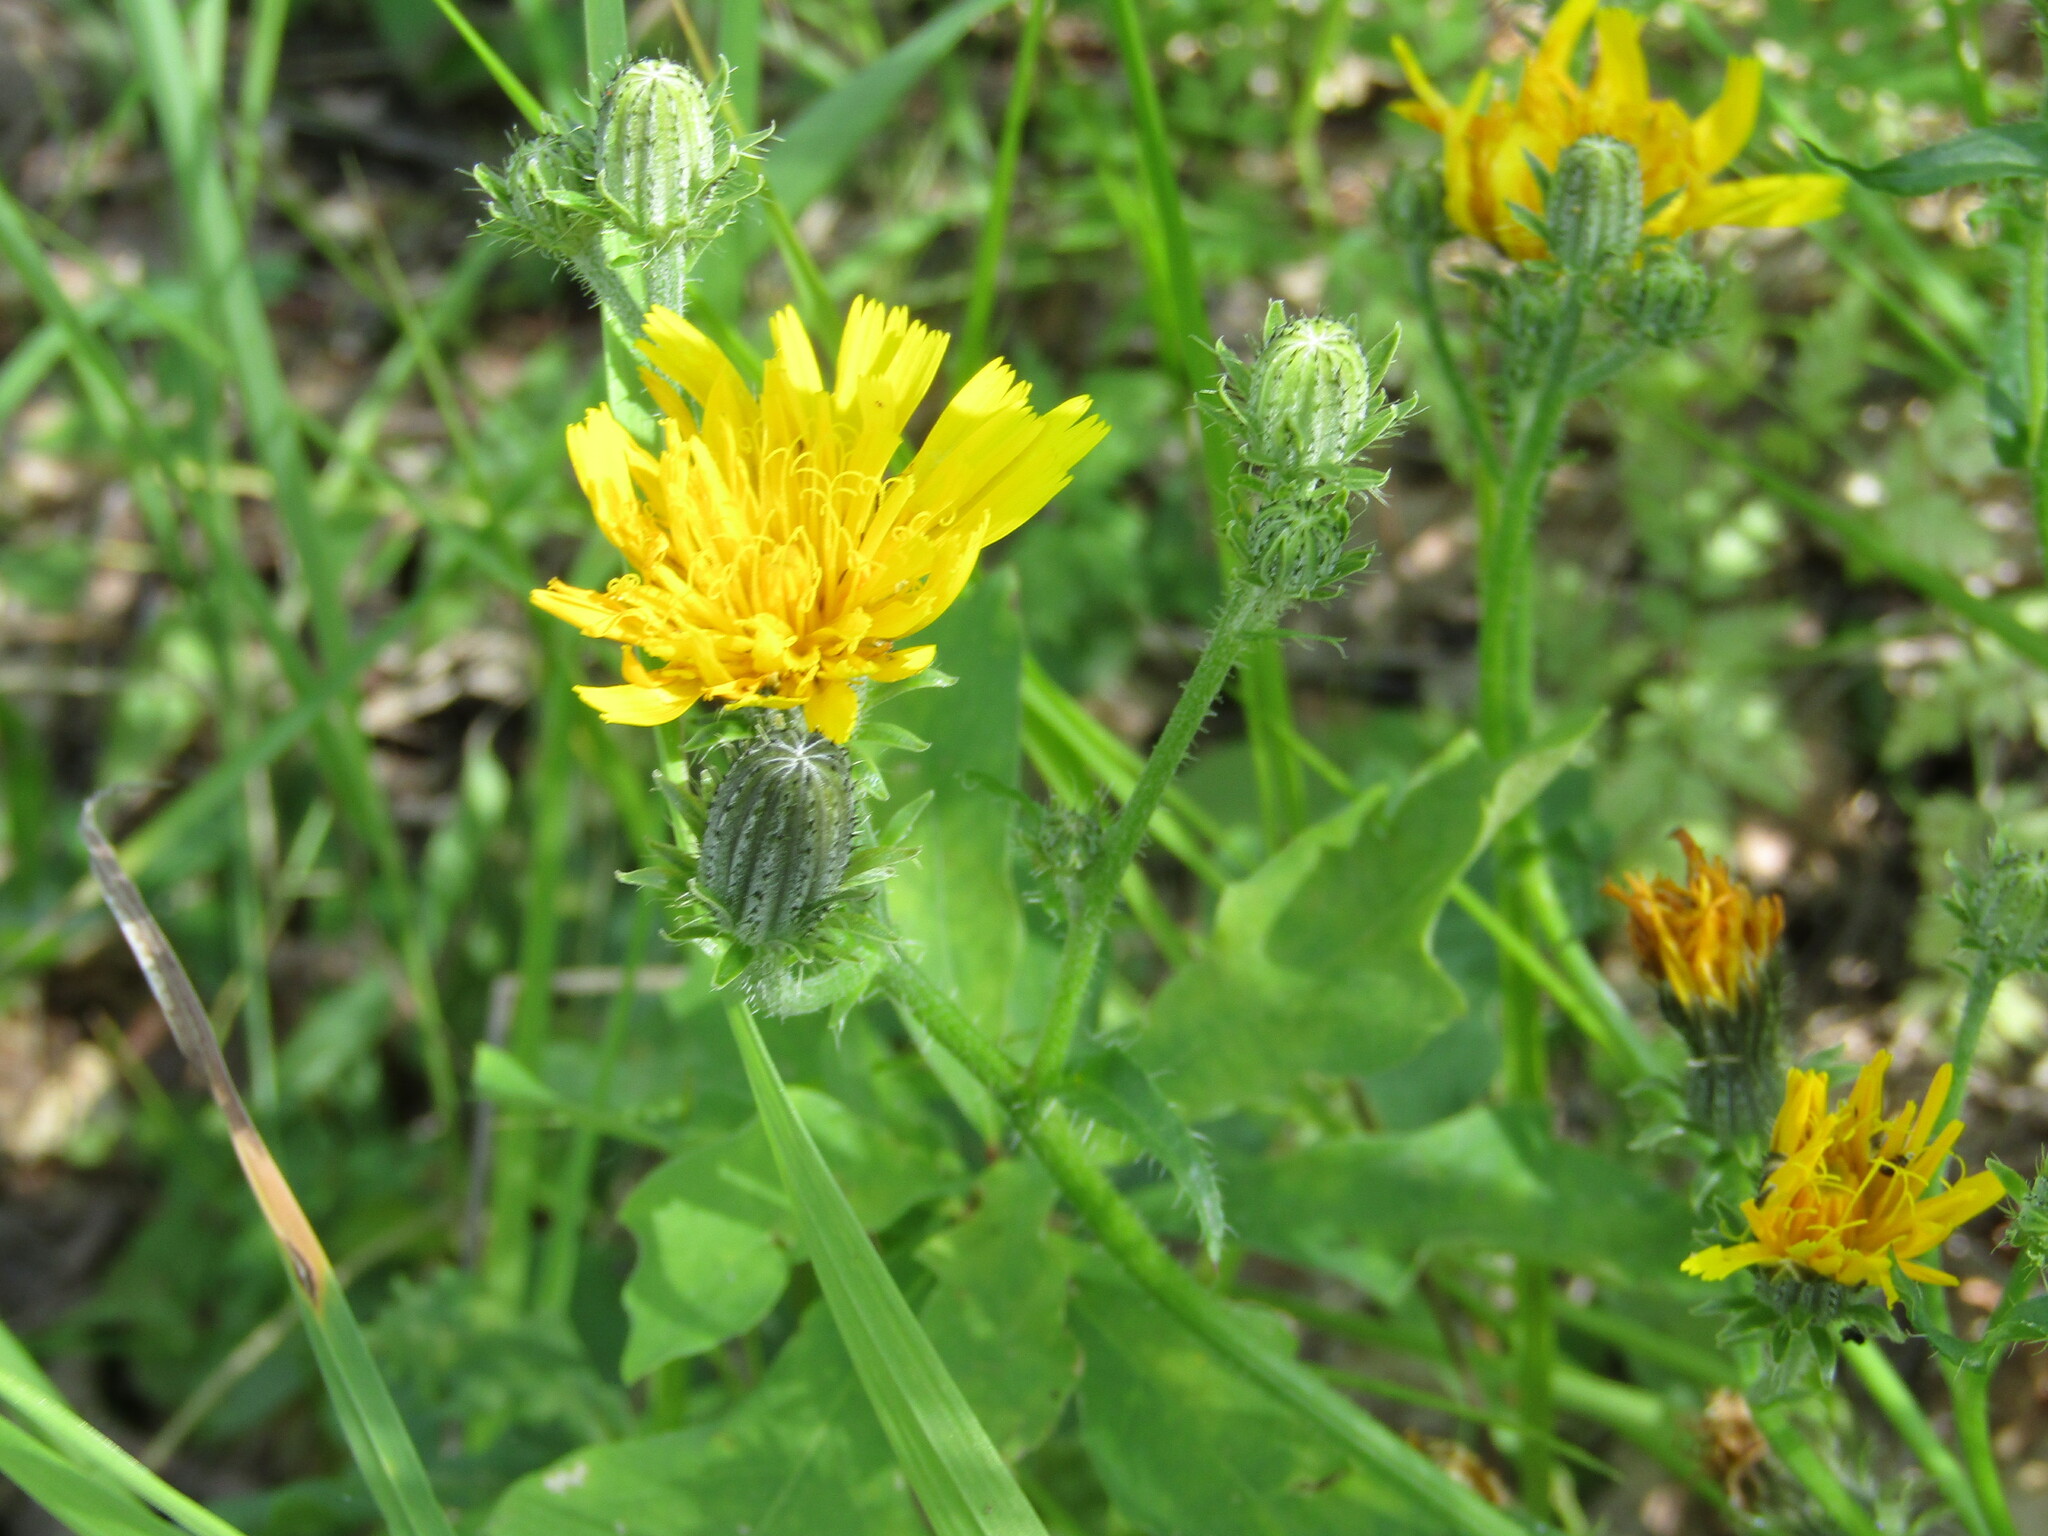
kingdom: Plantae
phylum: Tracheophyta
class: Magnoliopsida
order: Asterales
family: Asteraceae
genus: Picris
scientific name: Picris hieracioides
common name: Hawkweed oxtongue
